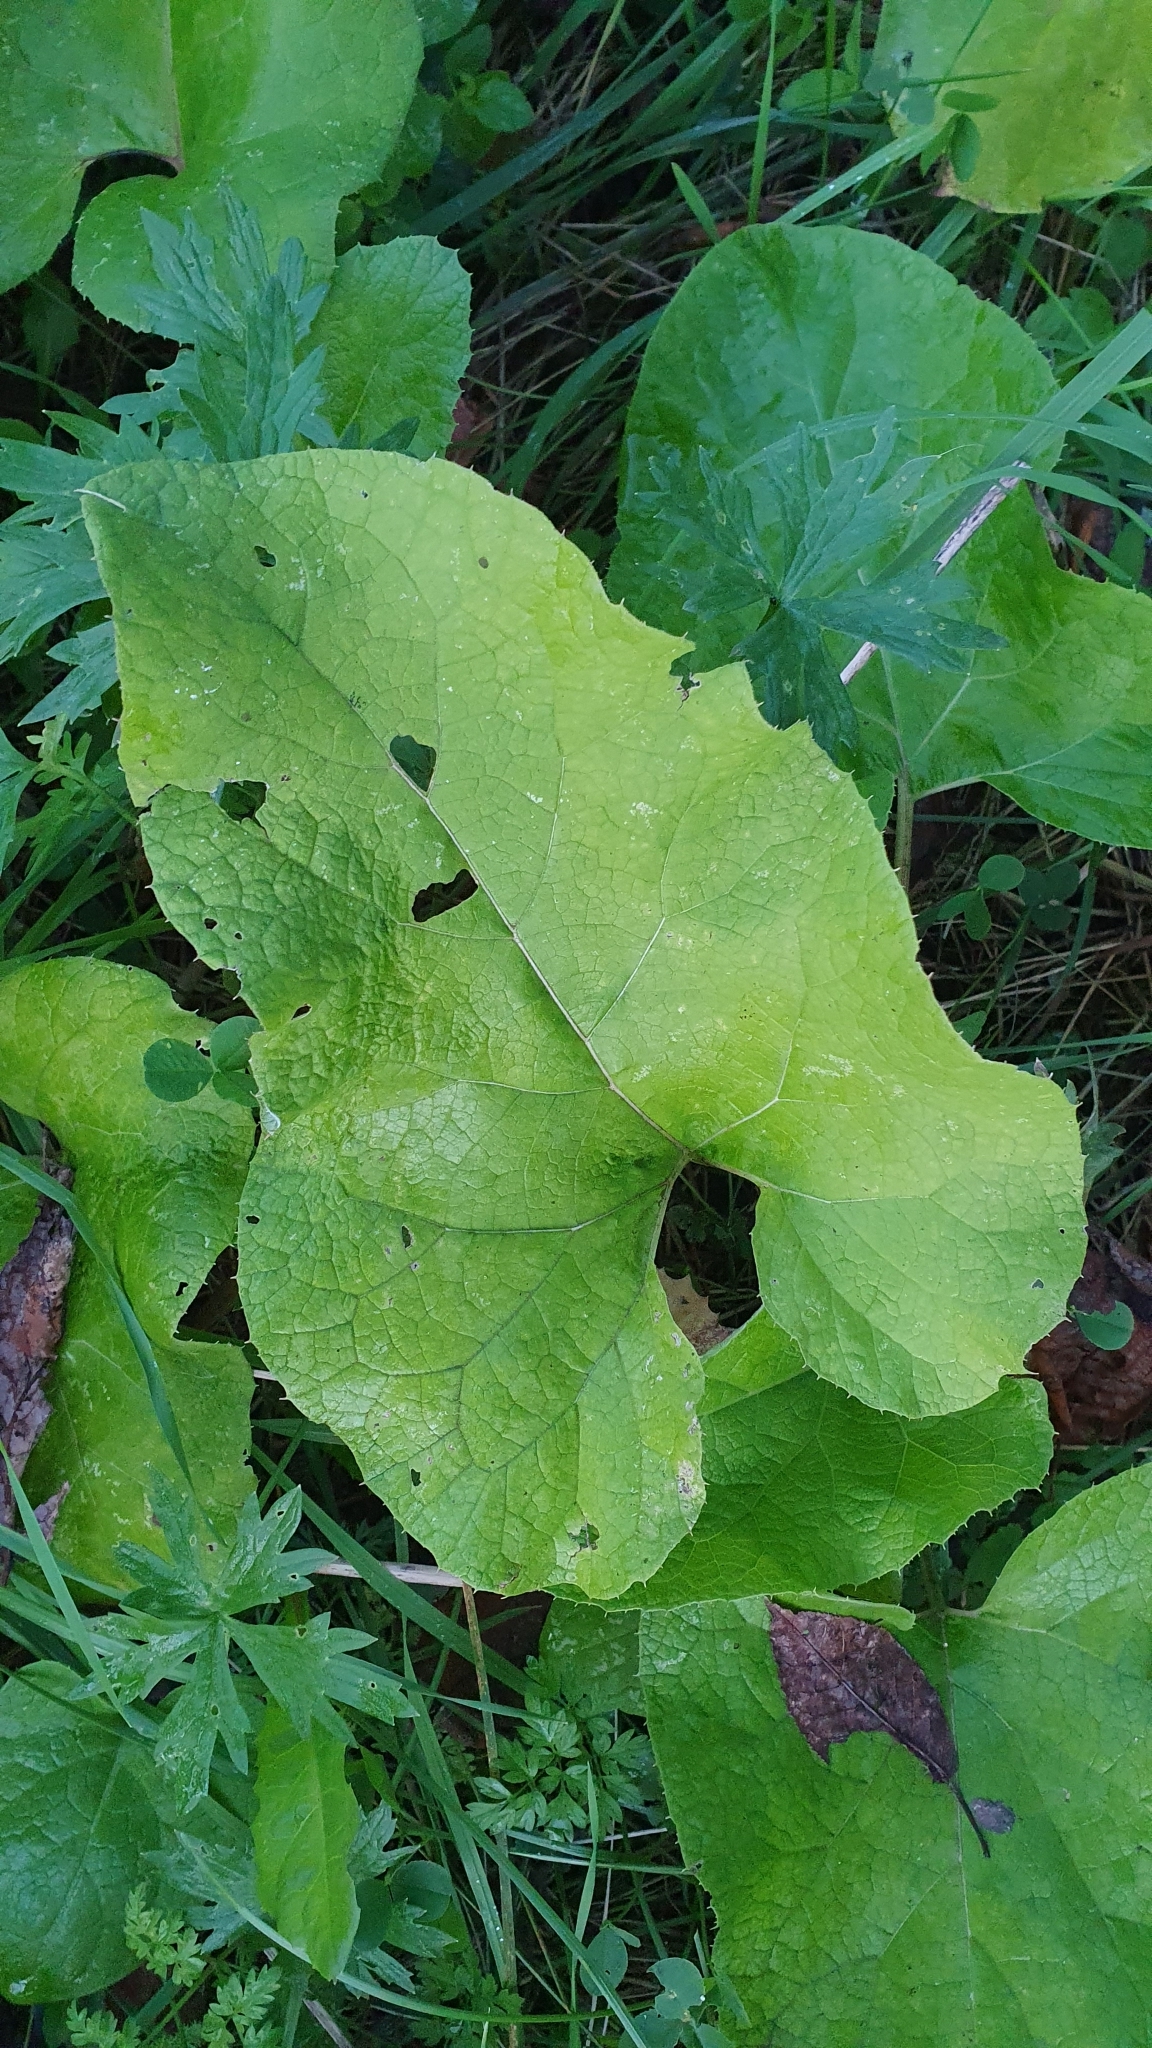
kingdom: Plantae
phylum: Tracheophyta
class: Magnoliopsida
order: Asterales
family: Asteraceae
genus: Arctium
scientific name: Arctium
